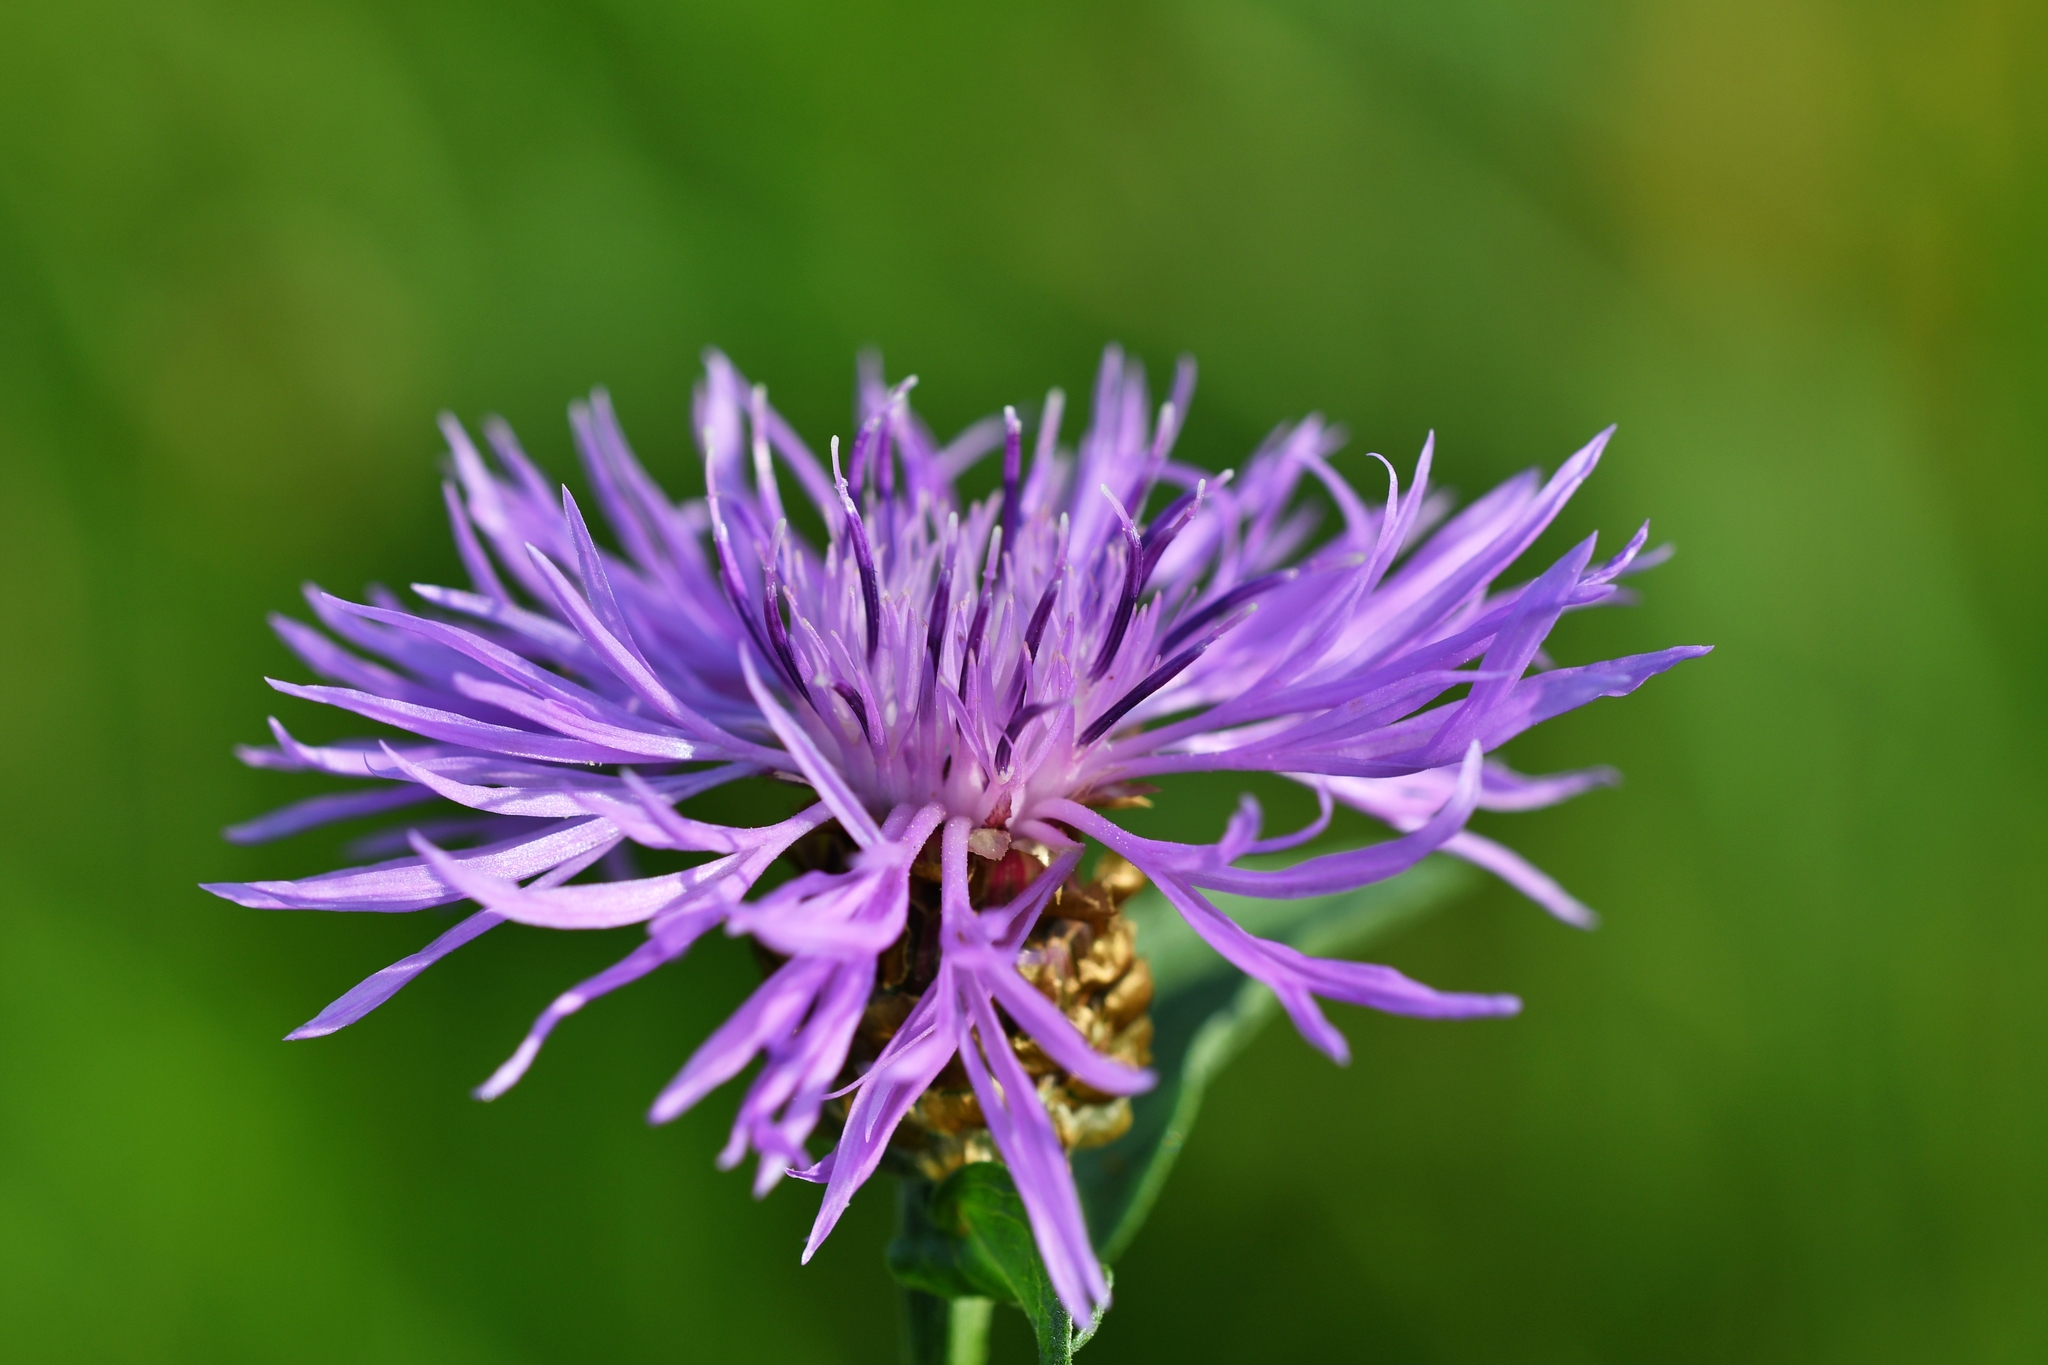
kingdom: Plantae
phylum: Tracheophyta
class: Magnoliopsida
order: Asterales
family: Asteraceae
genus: Centaurea
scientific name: Centaurea jacea
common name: Brown knapweed
